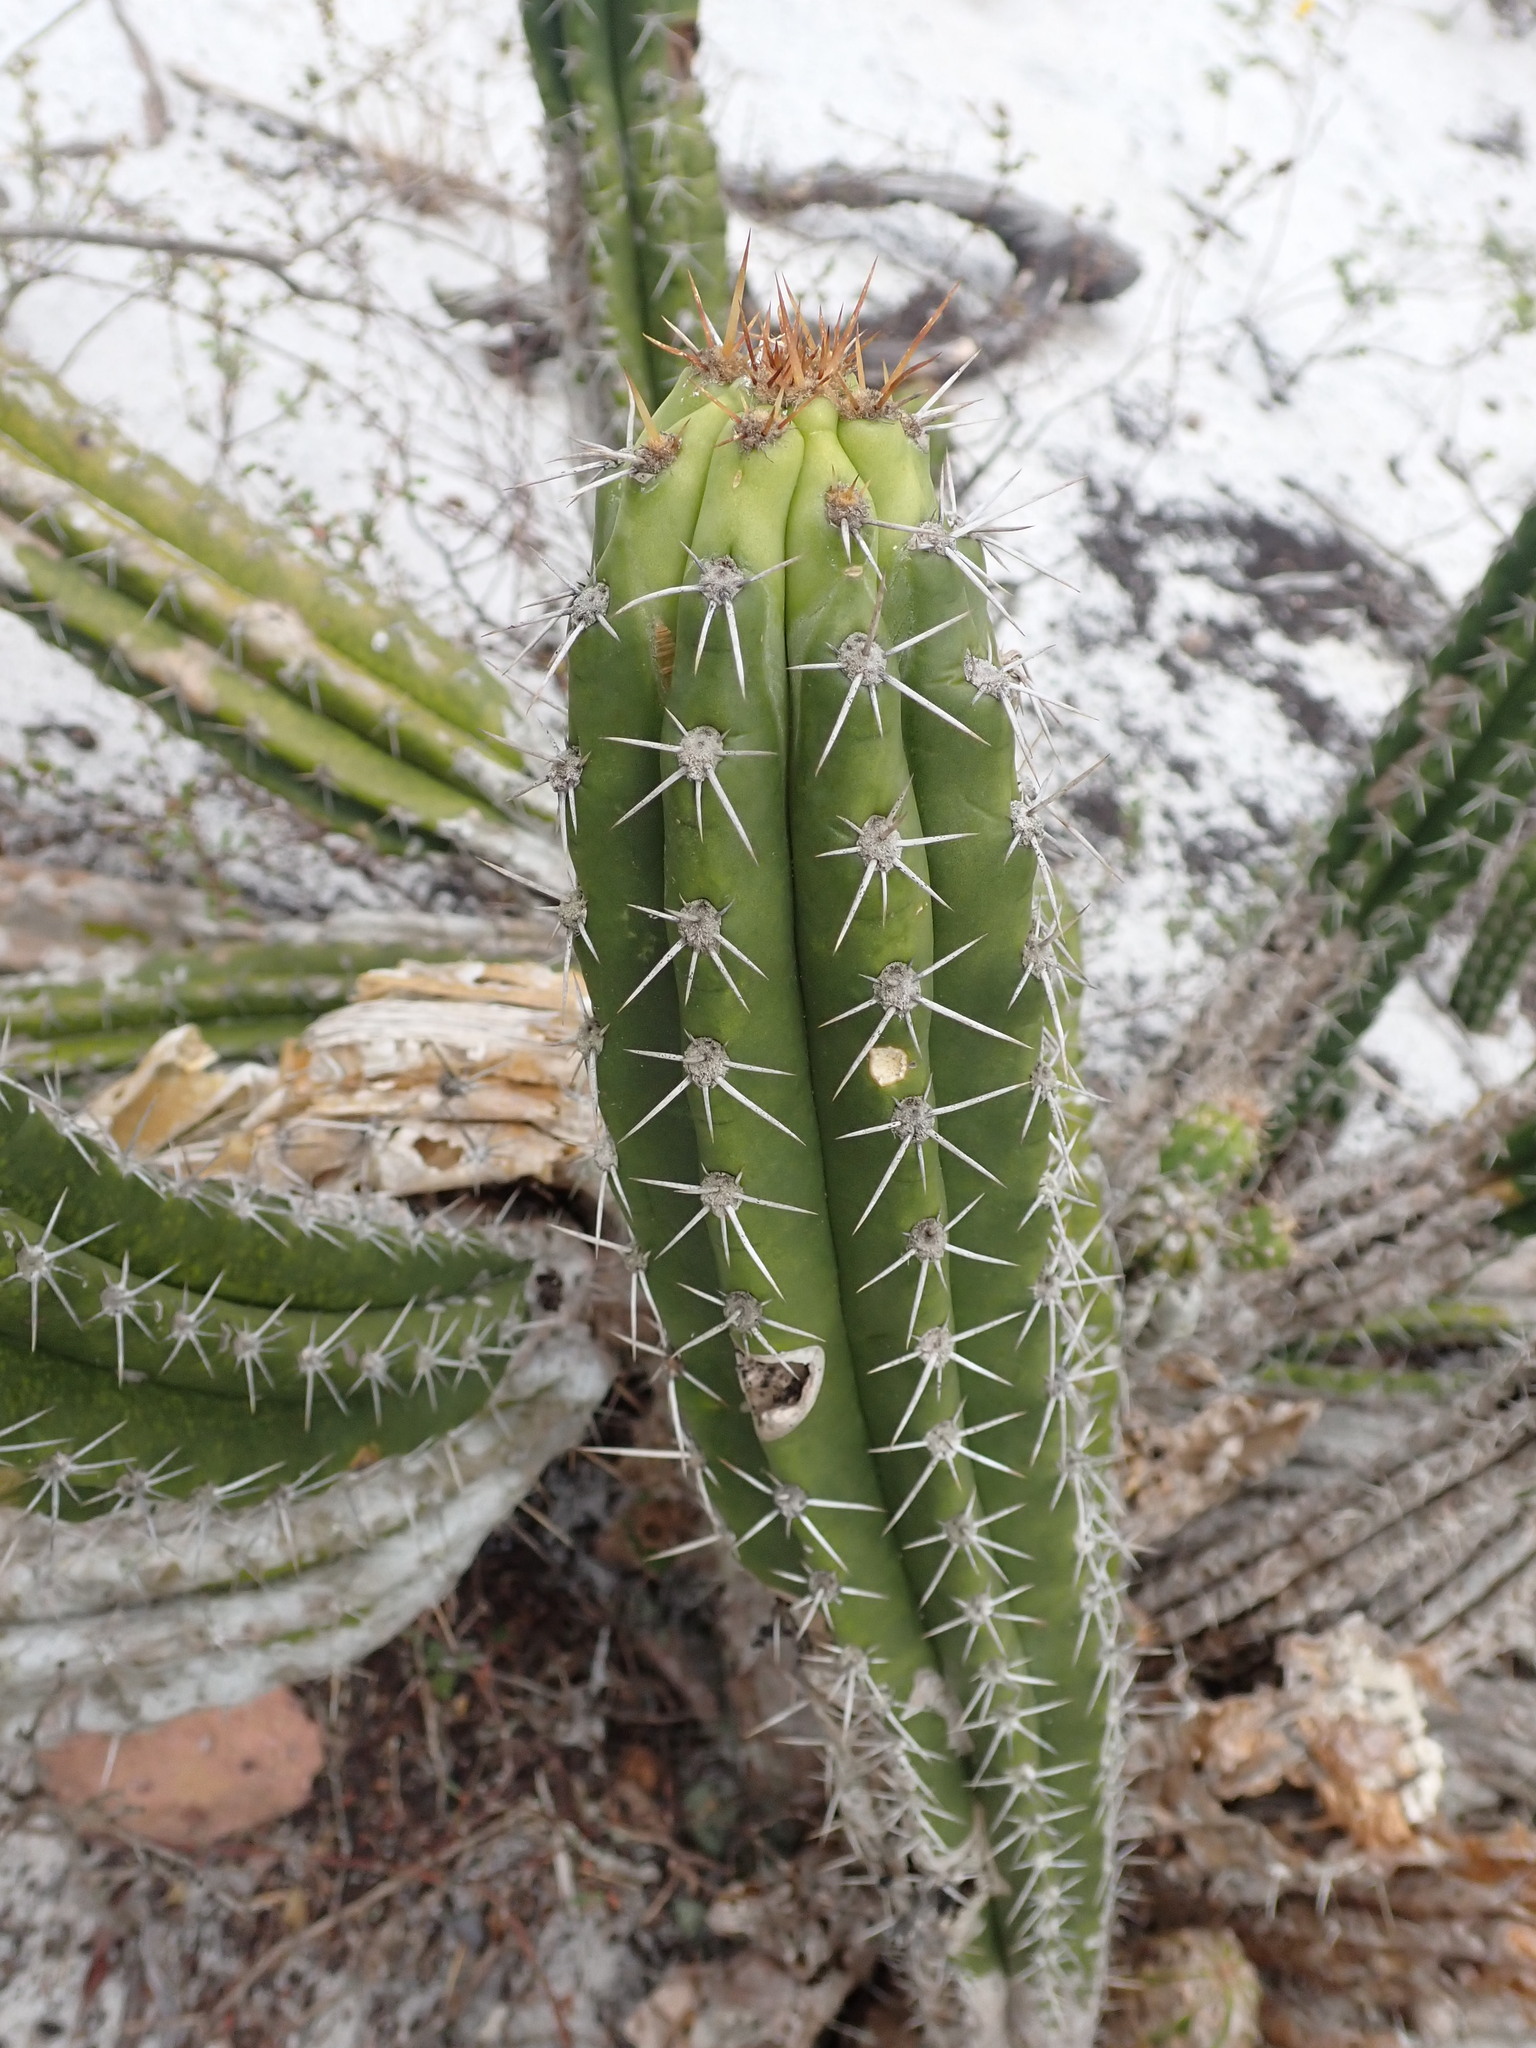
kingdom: Plantae
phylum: Tracheophyta
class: Magnoliopsida
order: Caryophyllales
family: Cactaceae
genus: Pilosocereus
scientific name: Pilosocereus arrabidae
